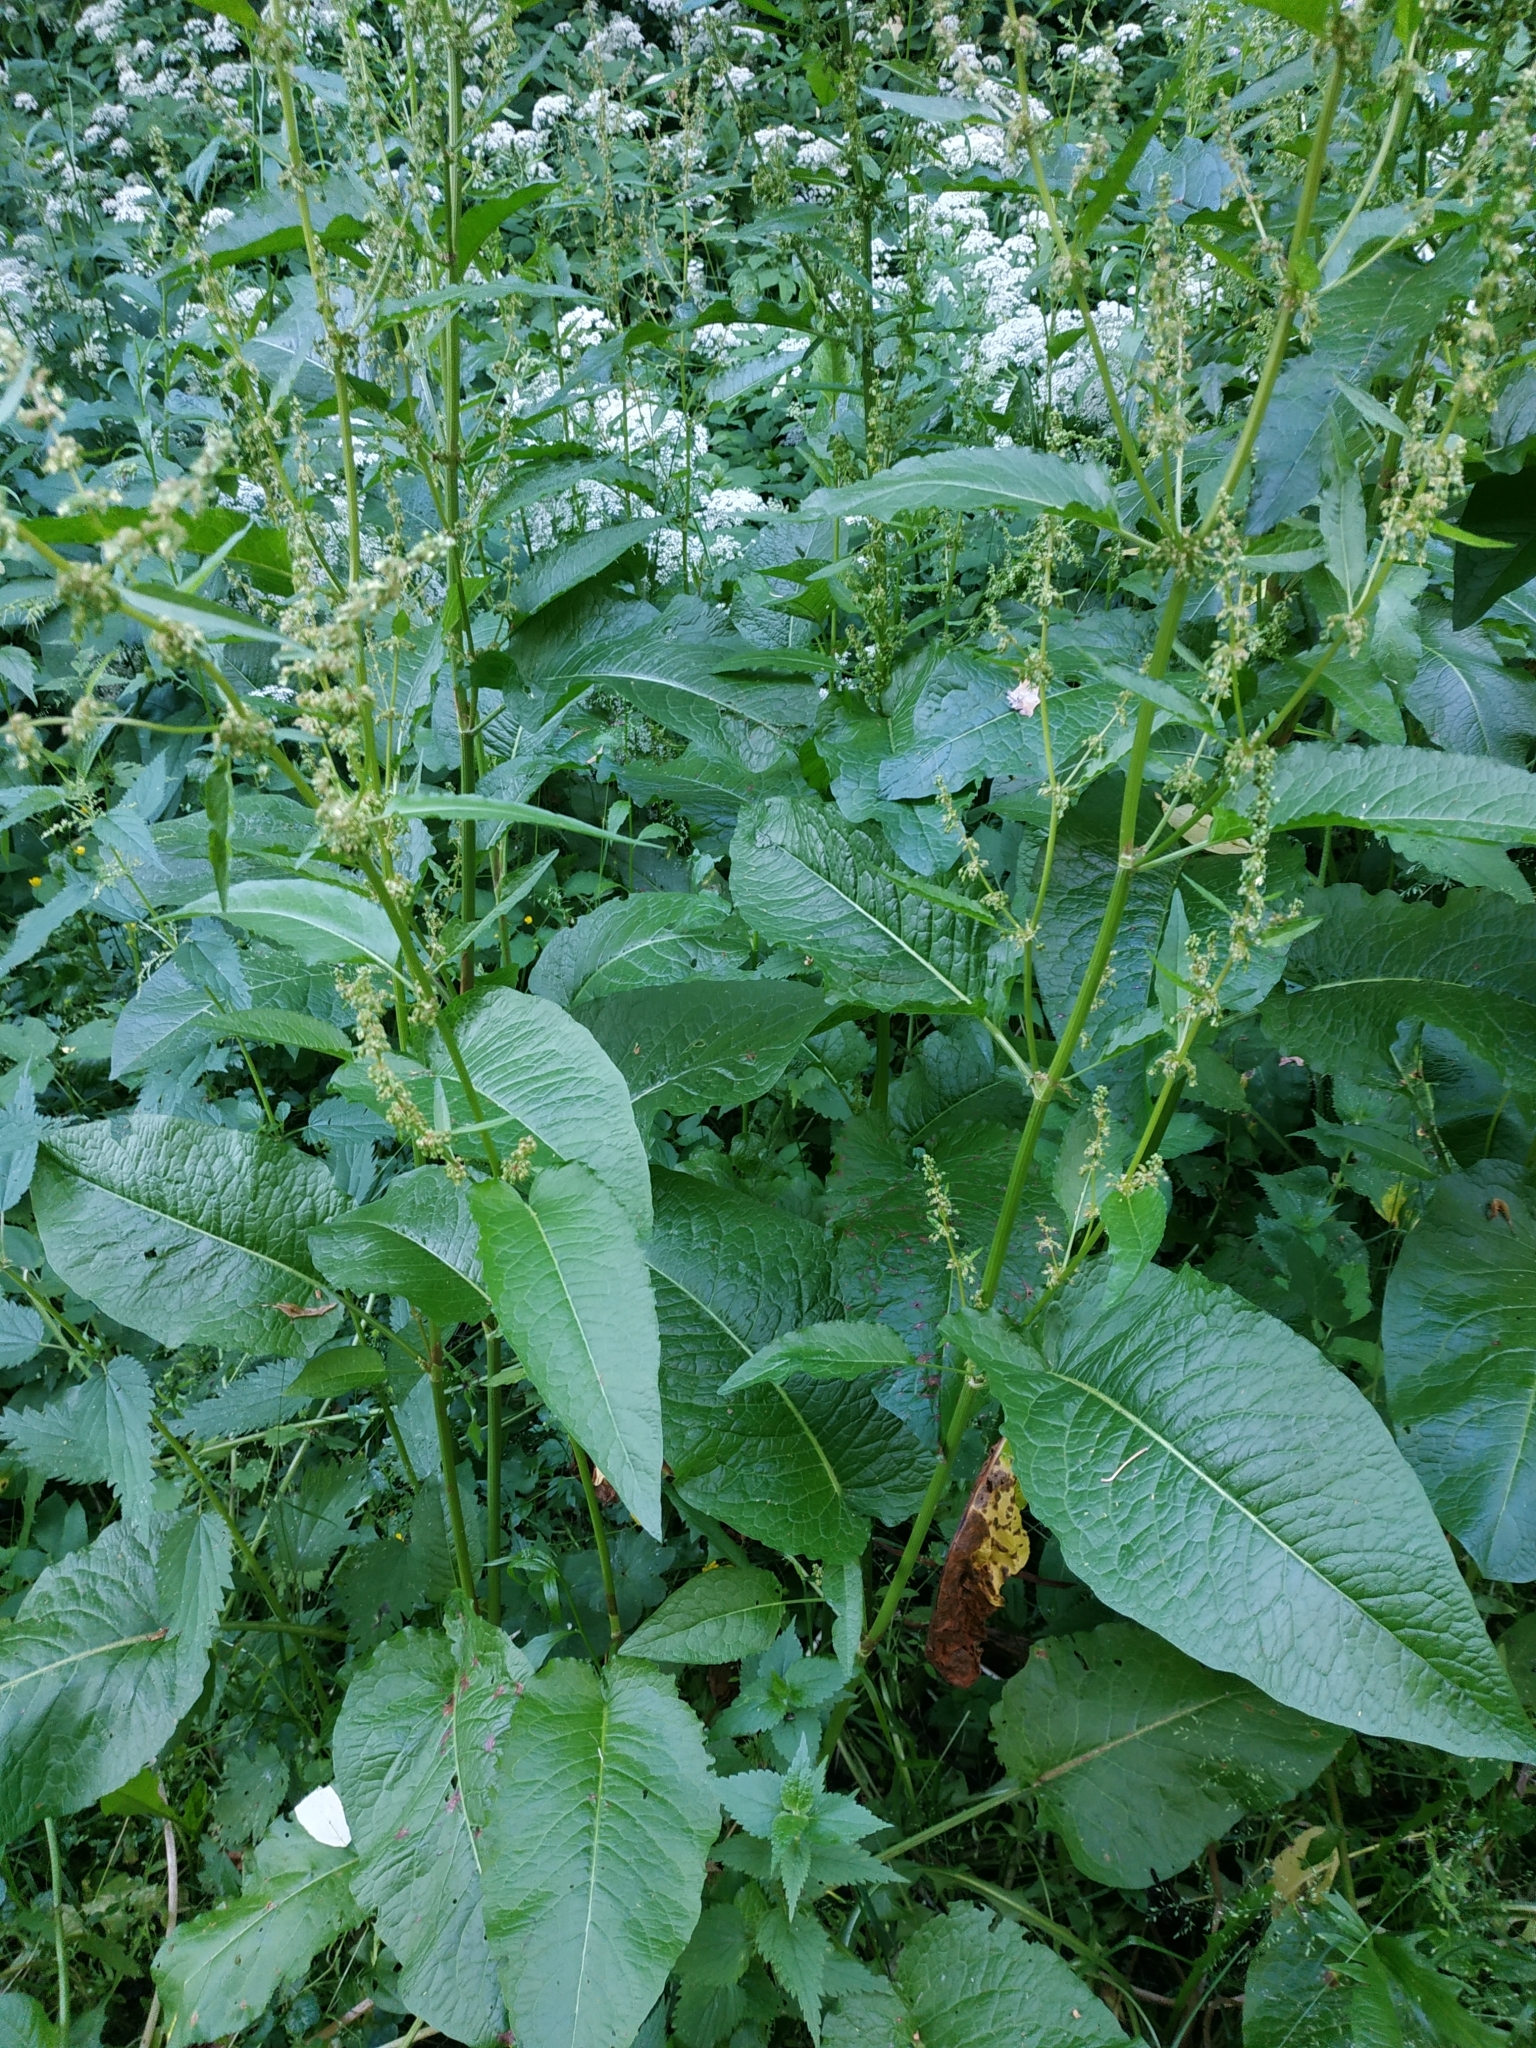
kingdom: Plantae
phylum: Tracheophyta
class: Magnoliopsida
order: Caryophyllales
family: Polygonaceae
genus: Rumex
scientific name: Rumex obtusifolius
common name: Bitter dock
